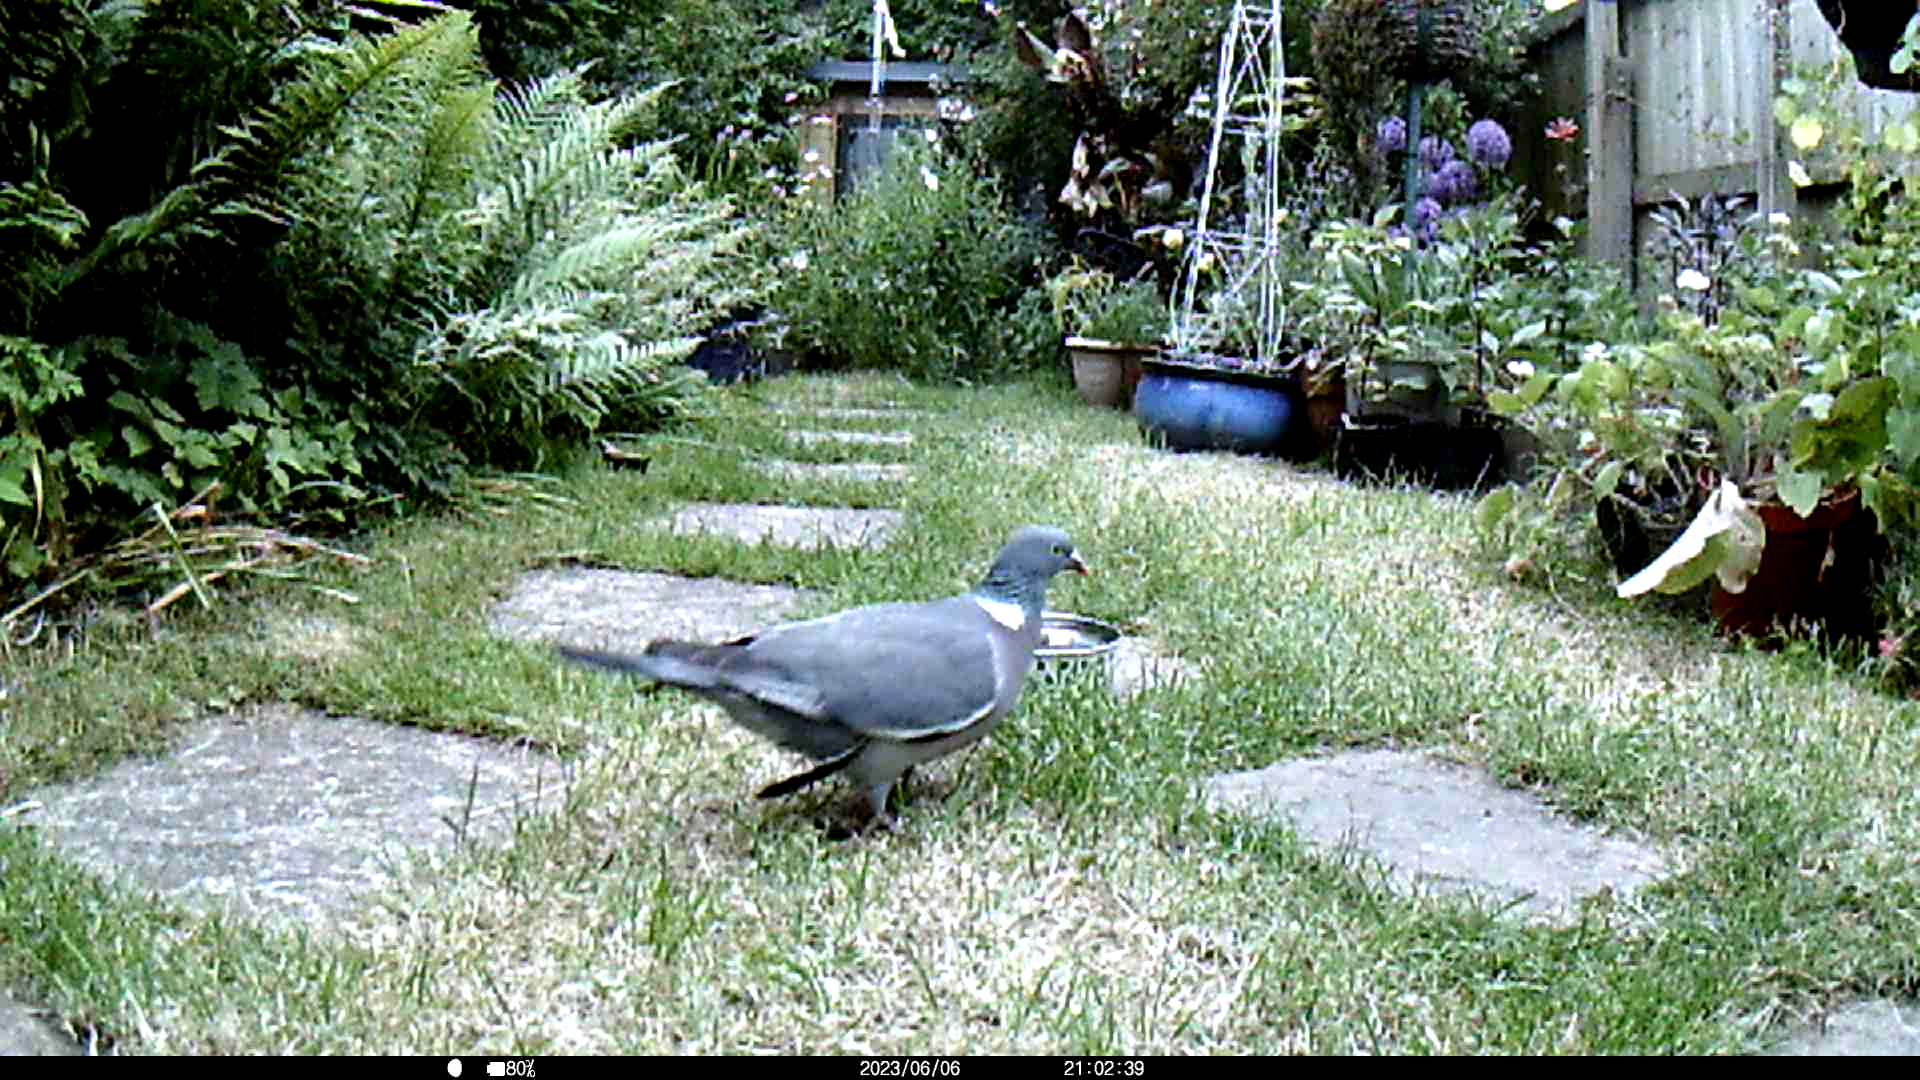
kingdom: Animalia
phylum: Chordata
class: Aves
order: Columbiformes
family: Columbidae
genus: Columba
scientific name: Columba palumbus
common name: Common wood pigeon
